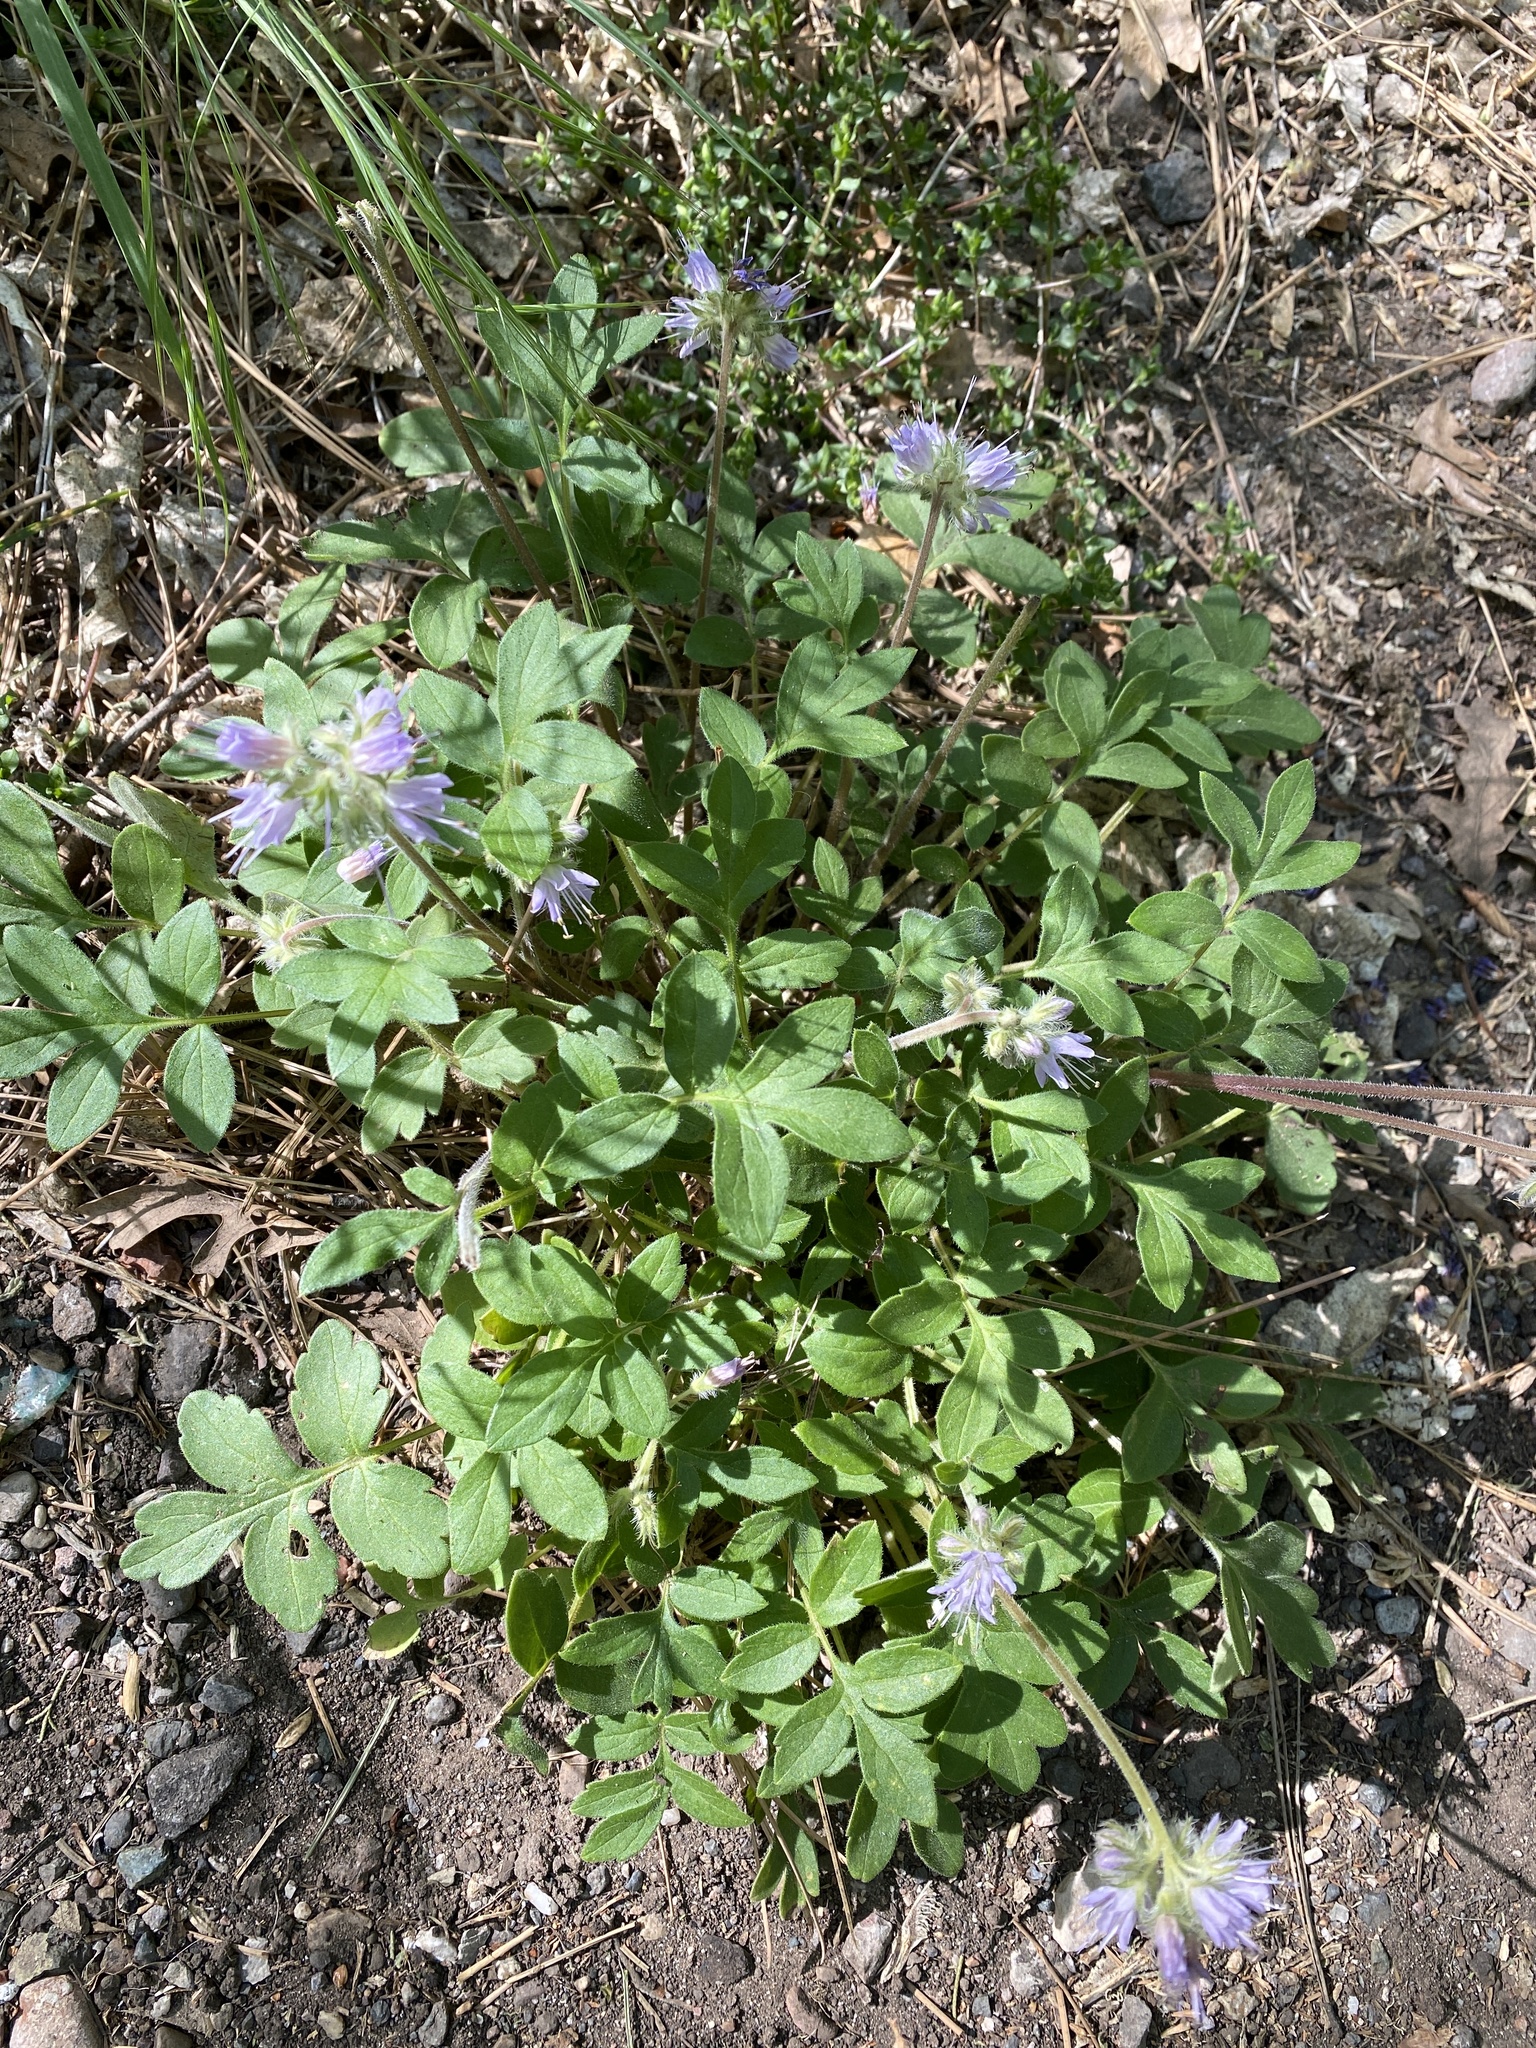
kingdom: Plantae
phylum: Tracheophyta
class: Magnoliopsida
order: Boraginales
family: Hydrophyllaceae
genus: Hydrophyllum
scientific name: Hydrophyllum occidentale
